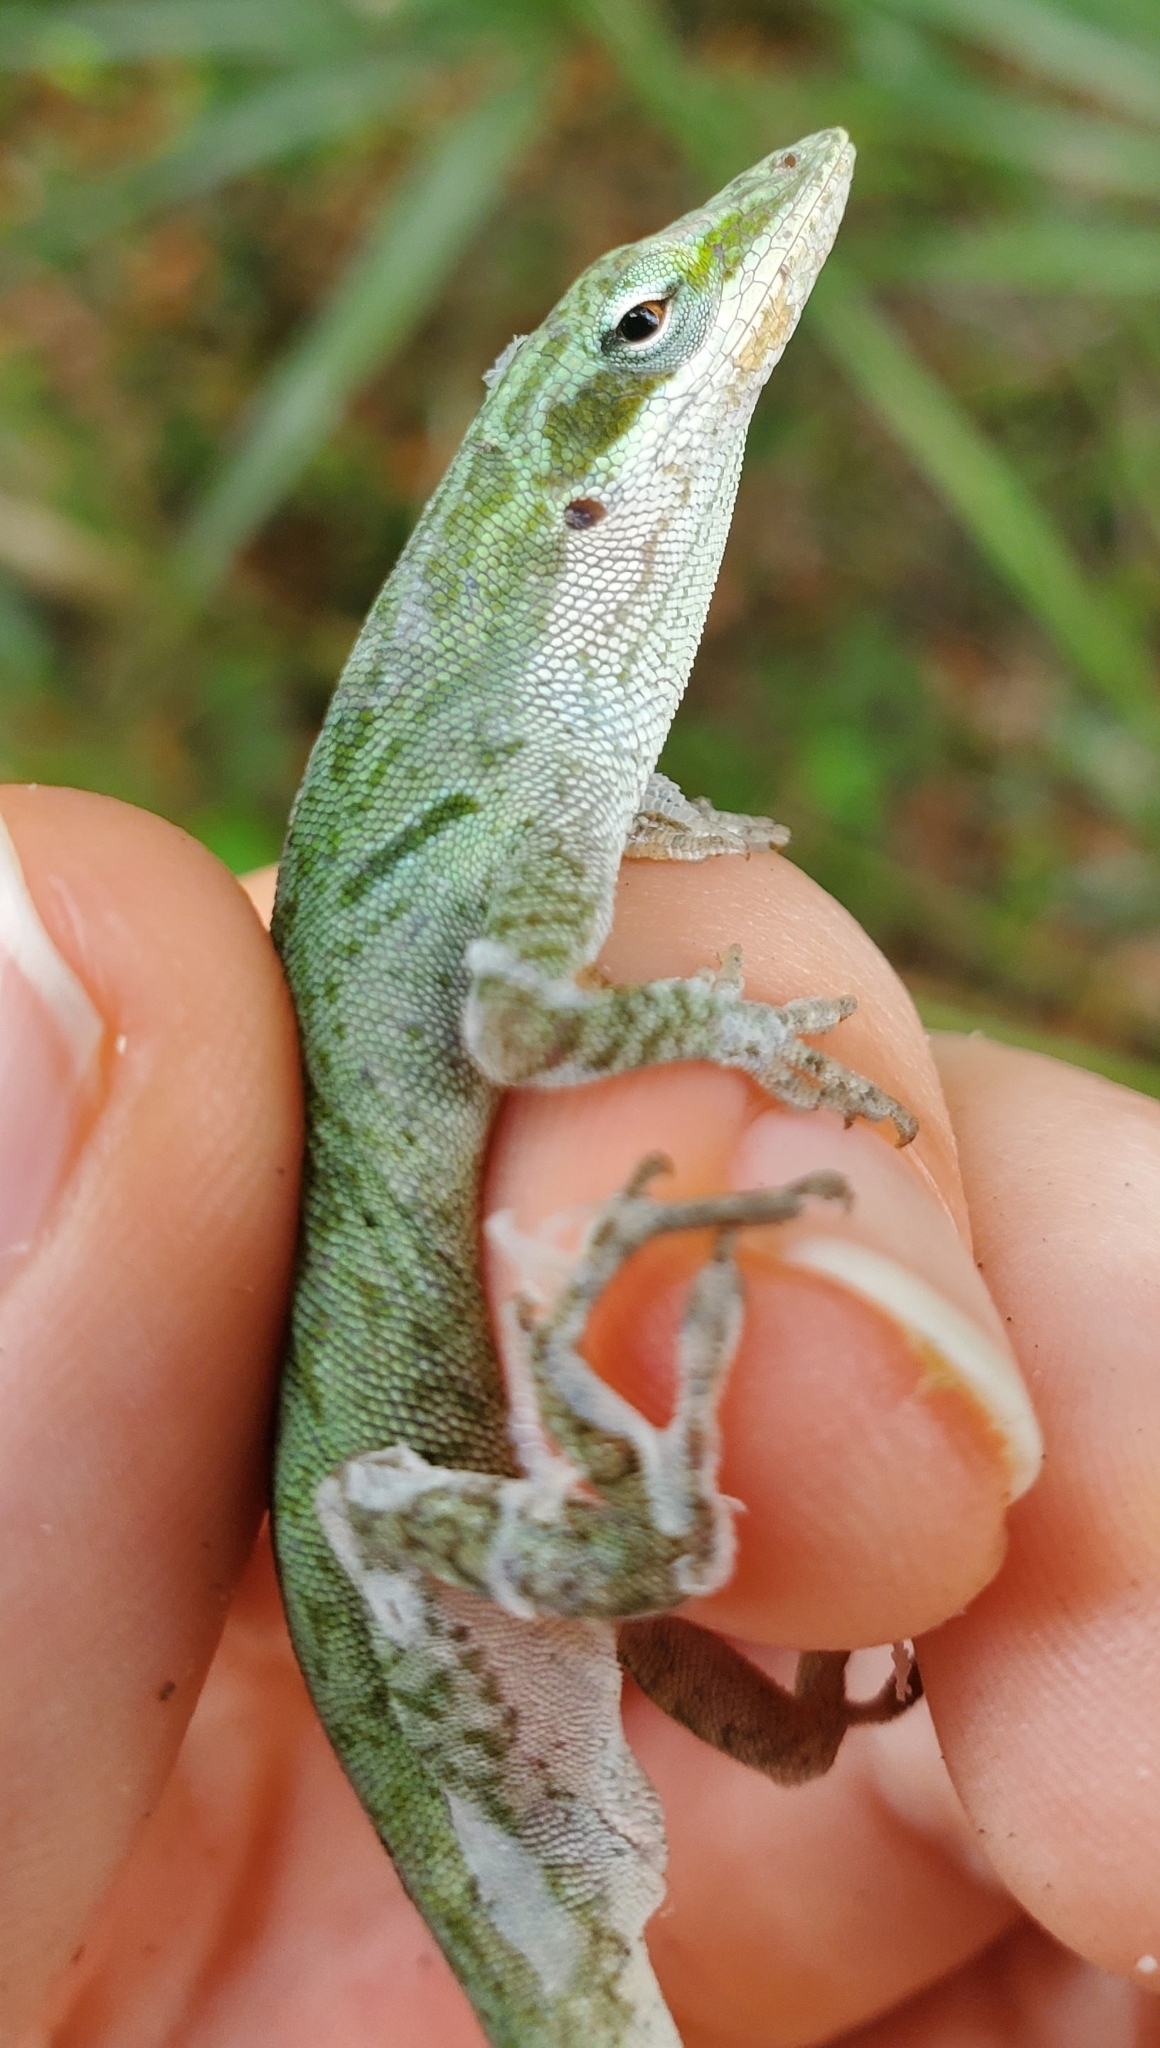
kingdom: Animalia
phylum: Chordata
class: Squamata
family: Dactyloidae
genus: Anolis
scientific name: Anolis carolinensis
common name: Green anole
